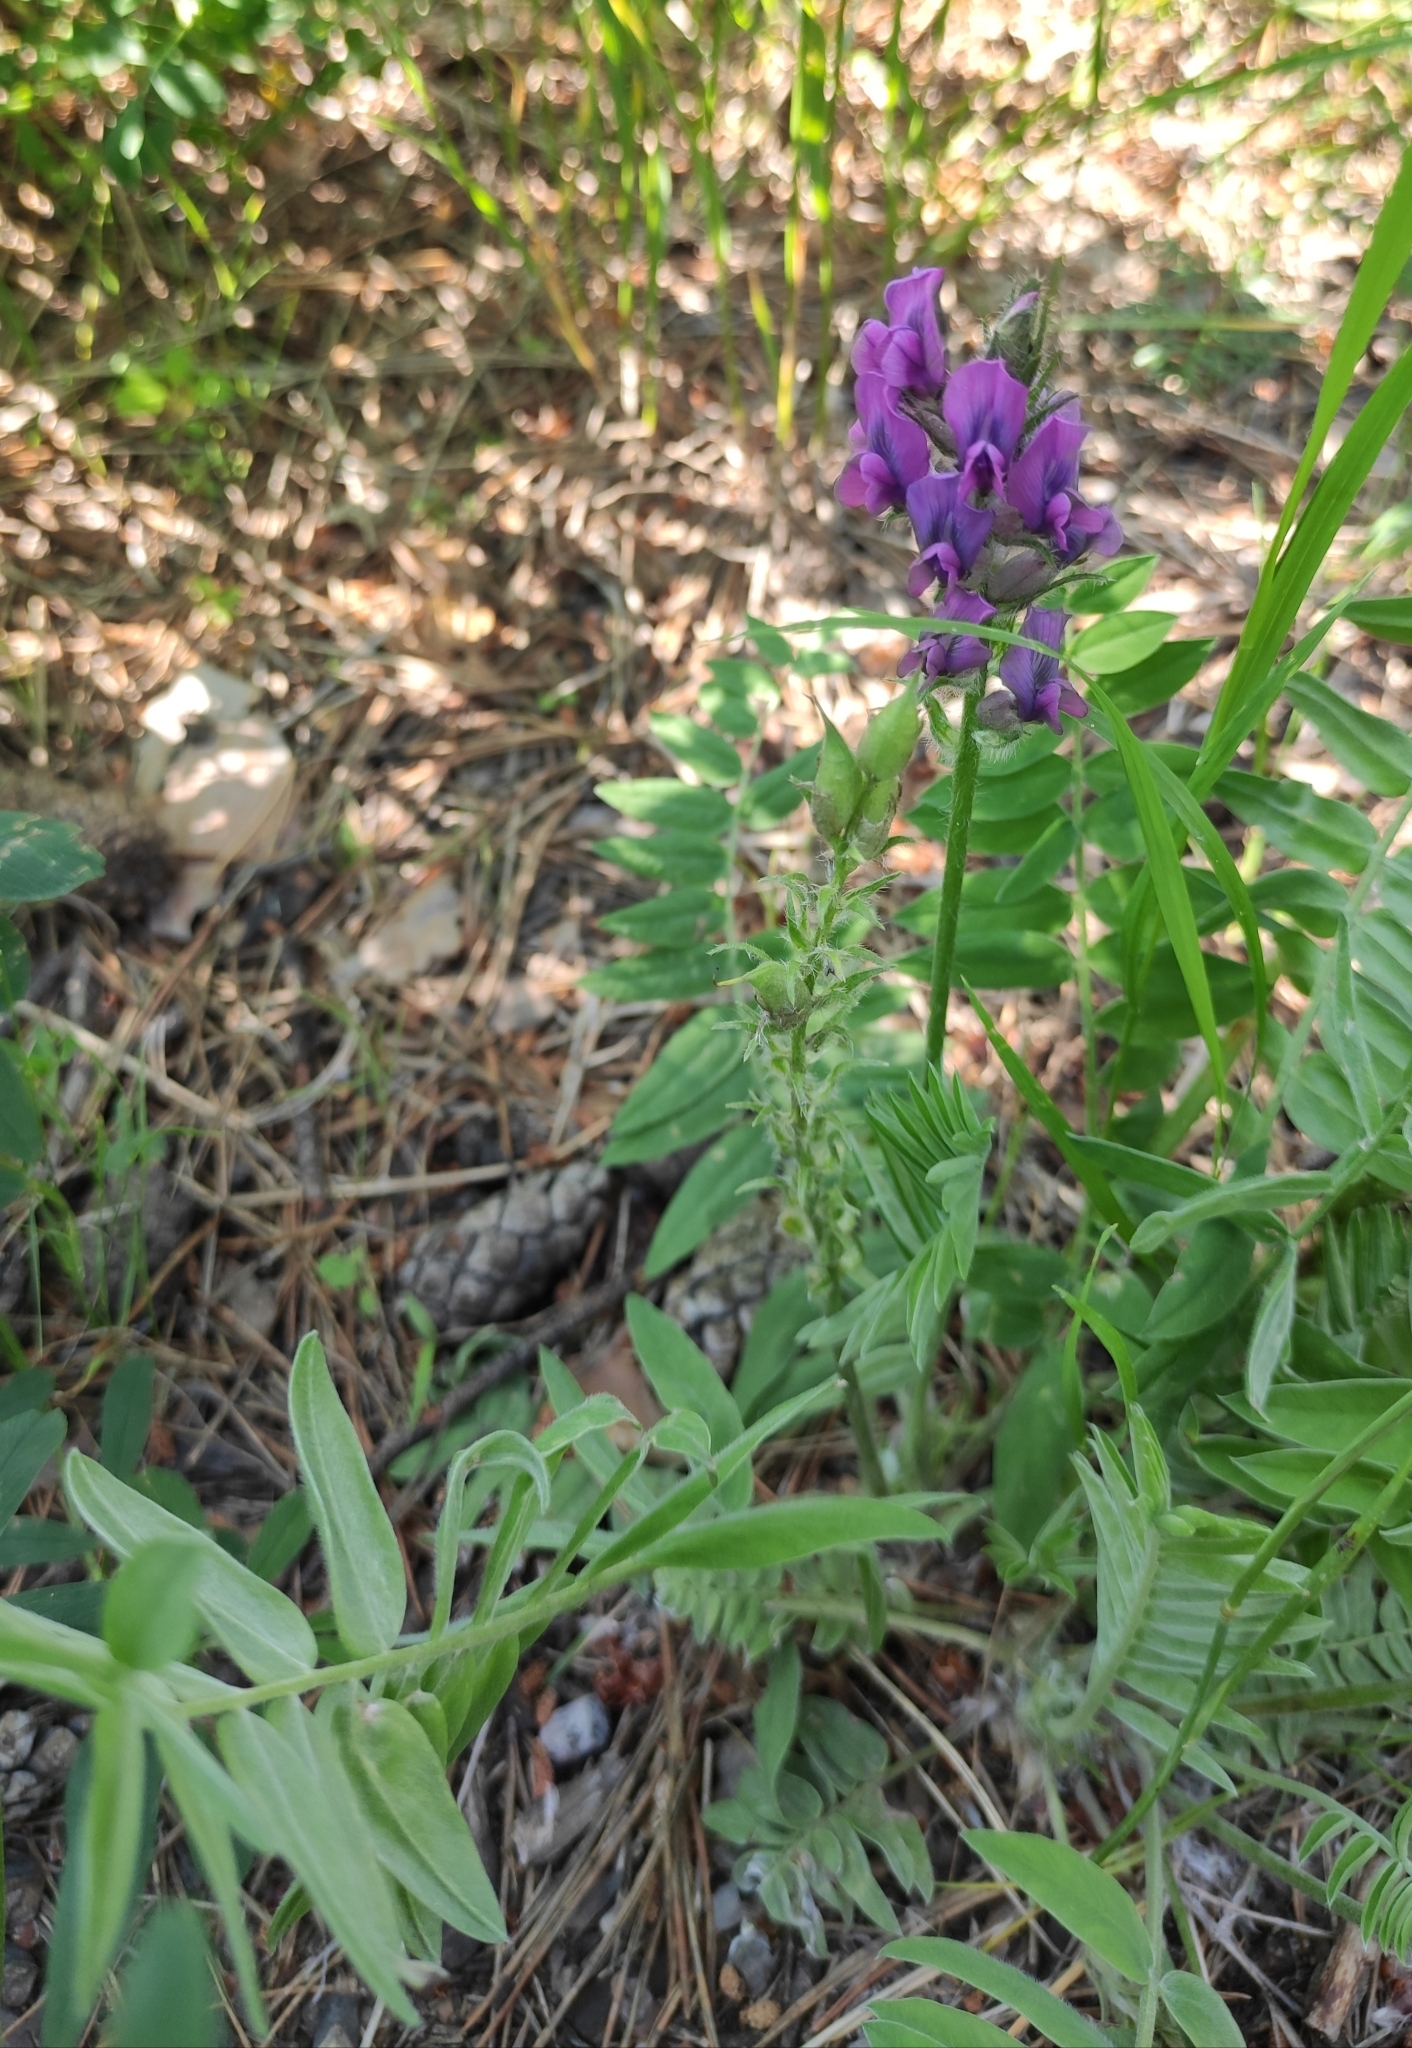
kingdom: Plantae
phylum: Tracheophyta
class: Magnoliopsida
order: Fabales
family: Fabaceae
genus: Oxytropis
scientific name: Oxytropis strobilacea
